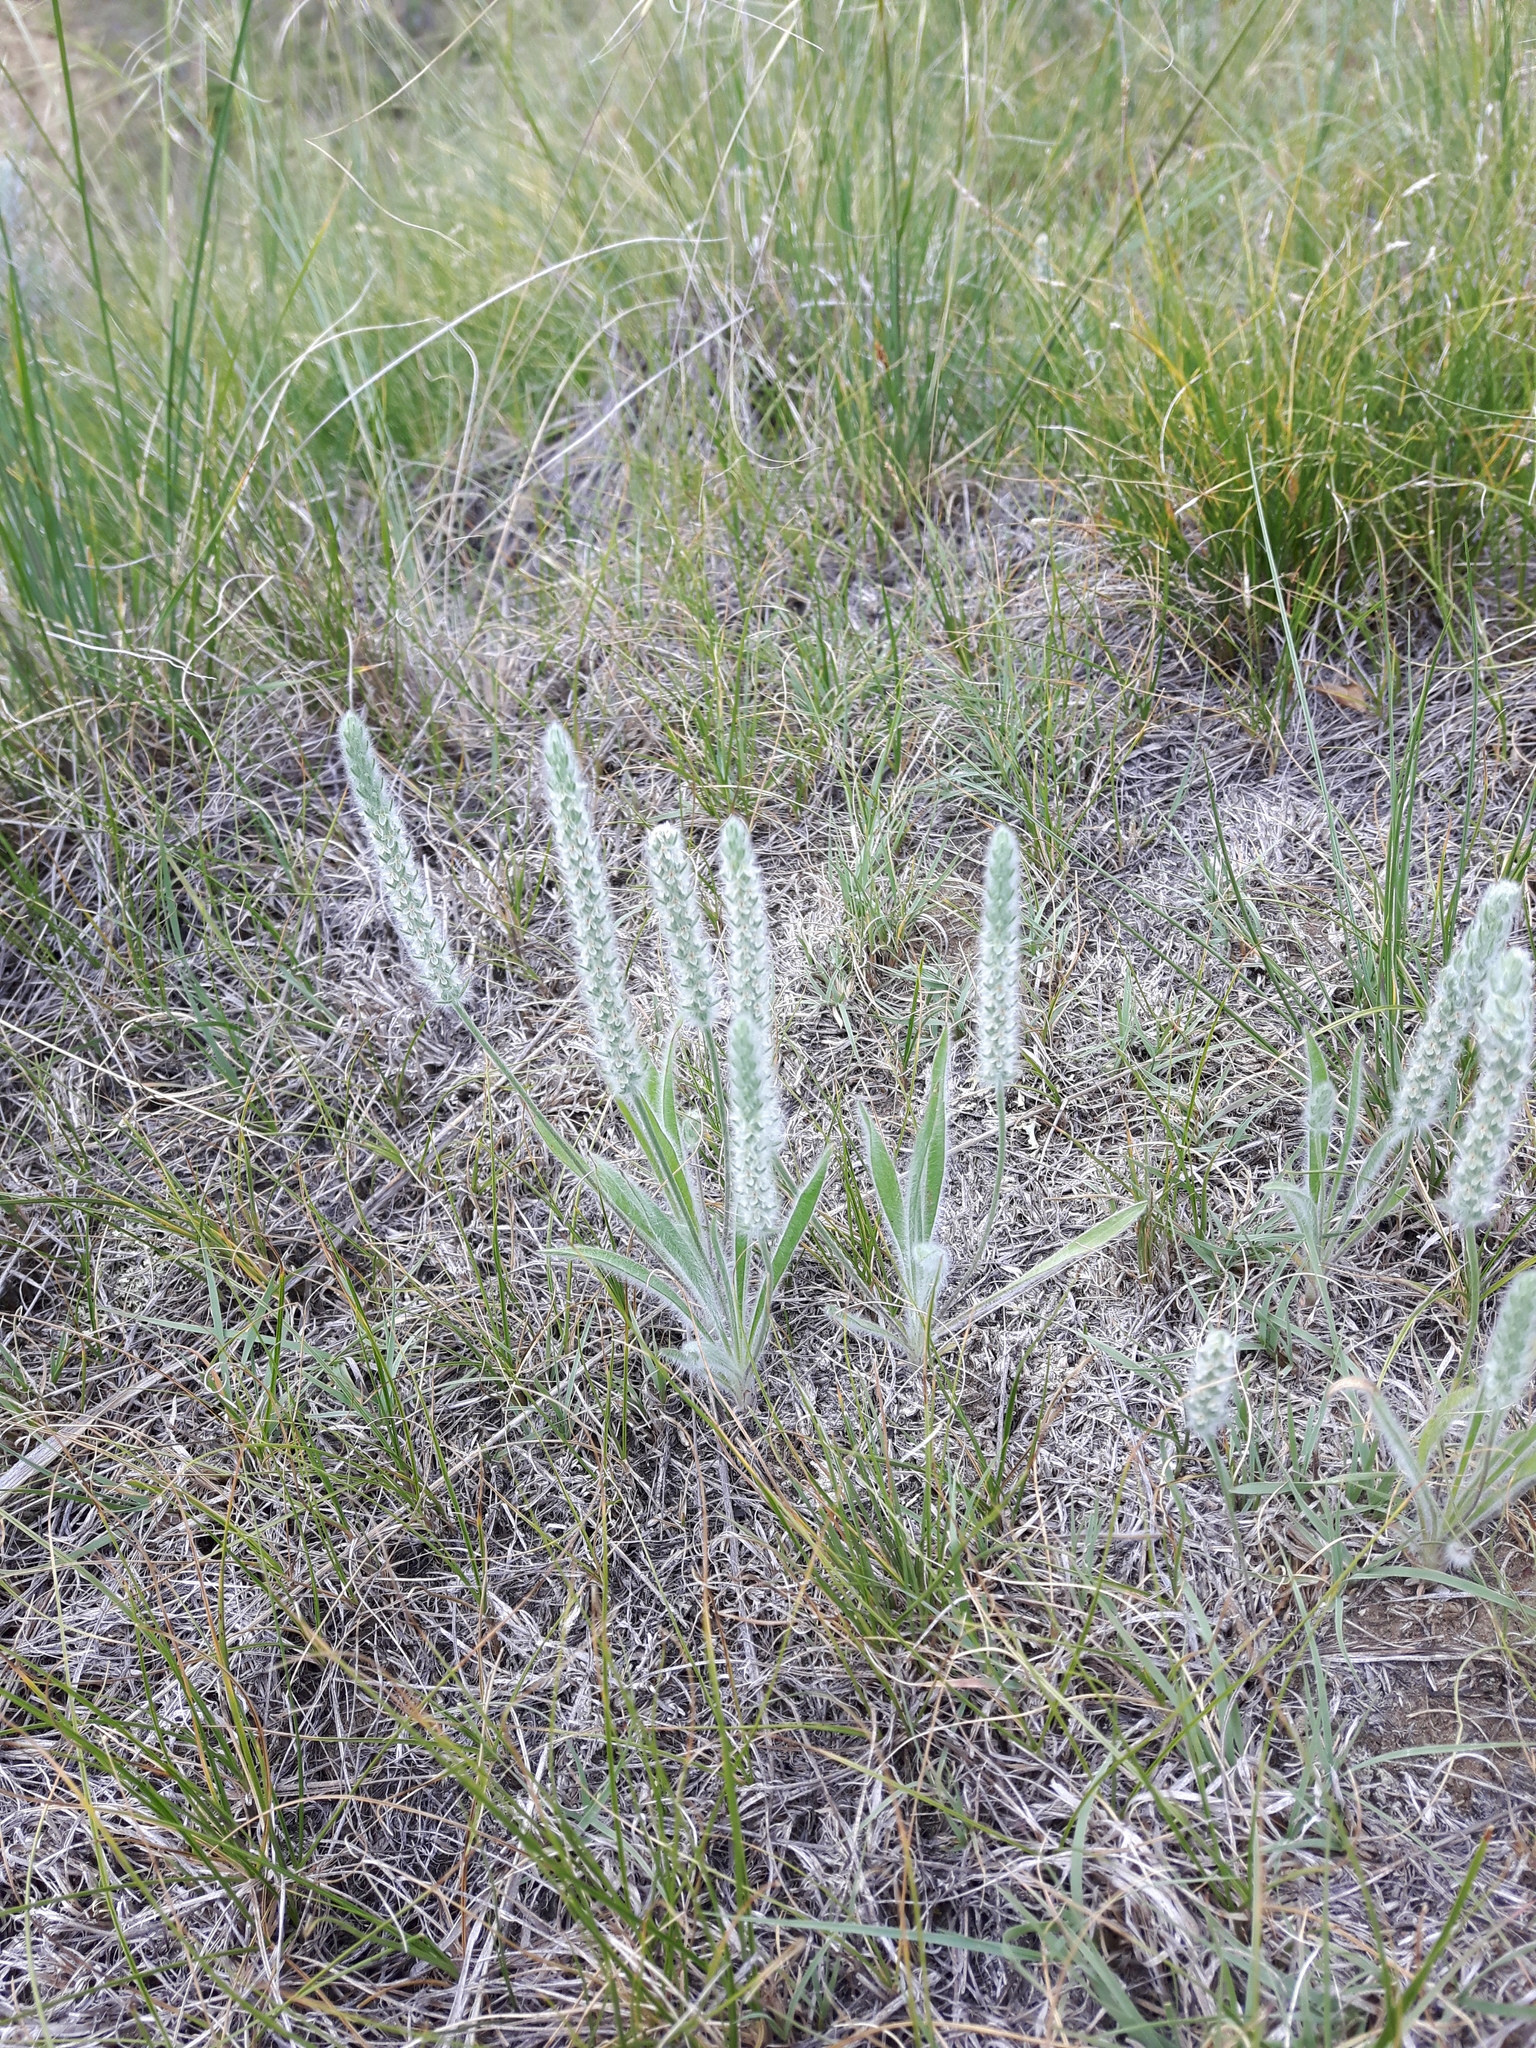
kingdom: Plantae
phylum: Tracheophyta
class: Magnoliopsida
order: Lamiales
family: Plantaginaceae
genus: Plantago
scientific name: Plantago patagonica
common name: Patagonia indian-wheat
